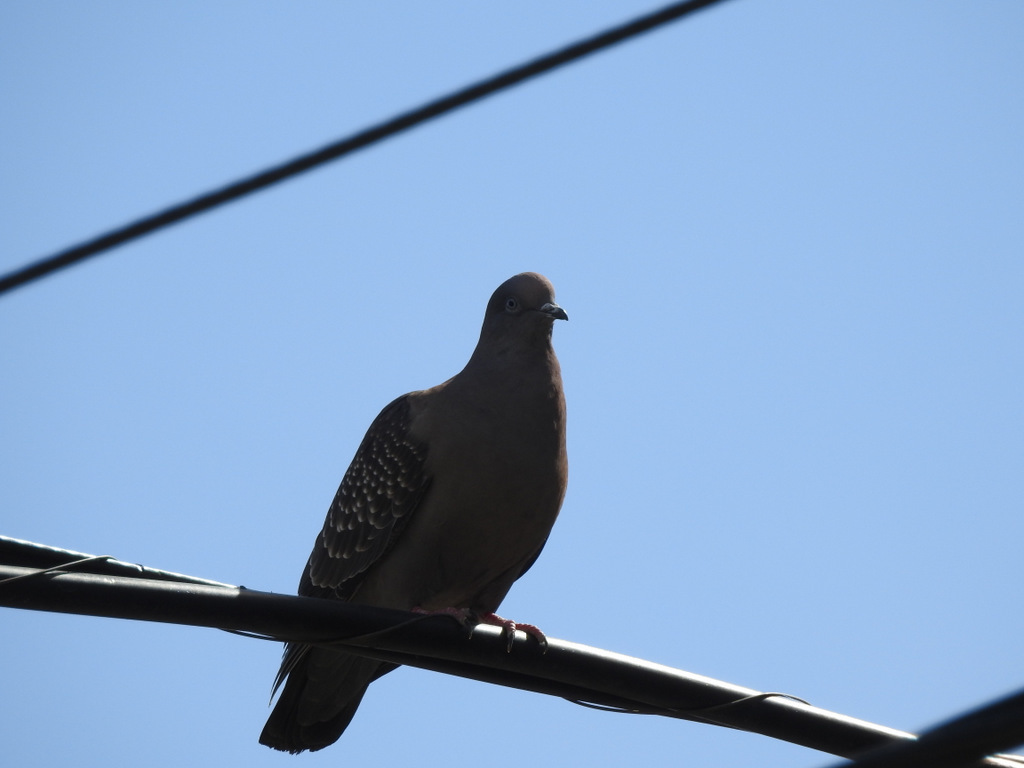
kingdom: Animalia
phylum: Chordata
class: Aves
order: Columbiformes
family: Columbidae
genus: Patagioenas
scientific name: Patagioenas maculosa
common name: Spot-winged pigeon
